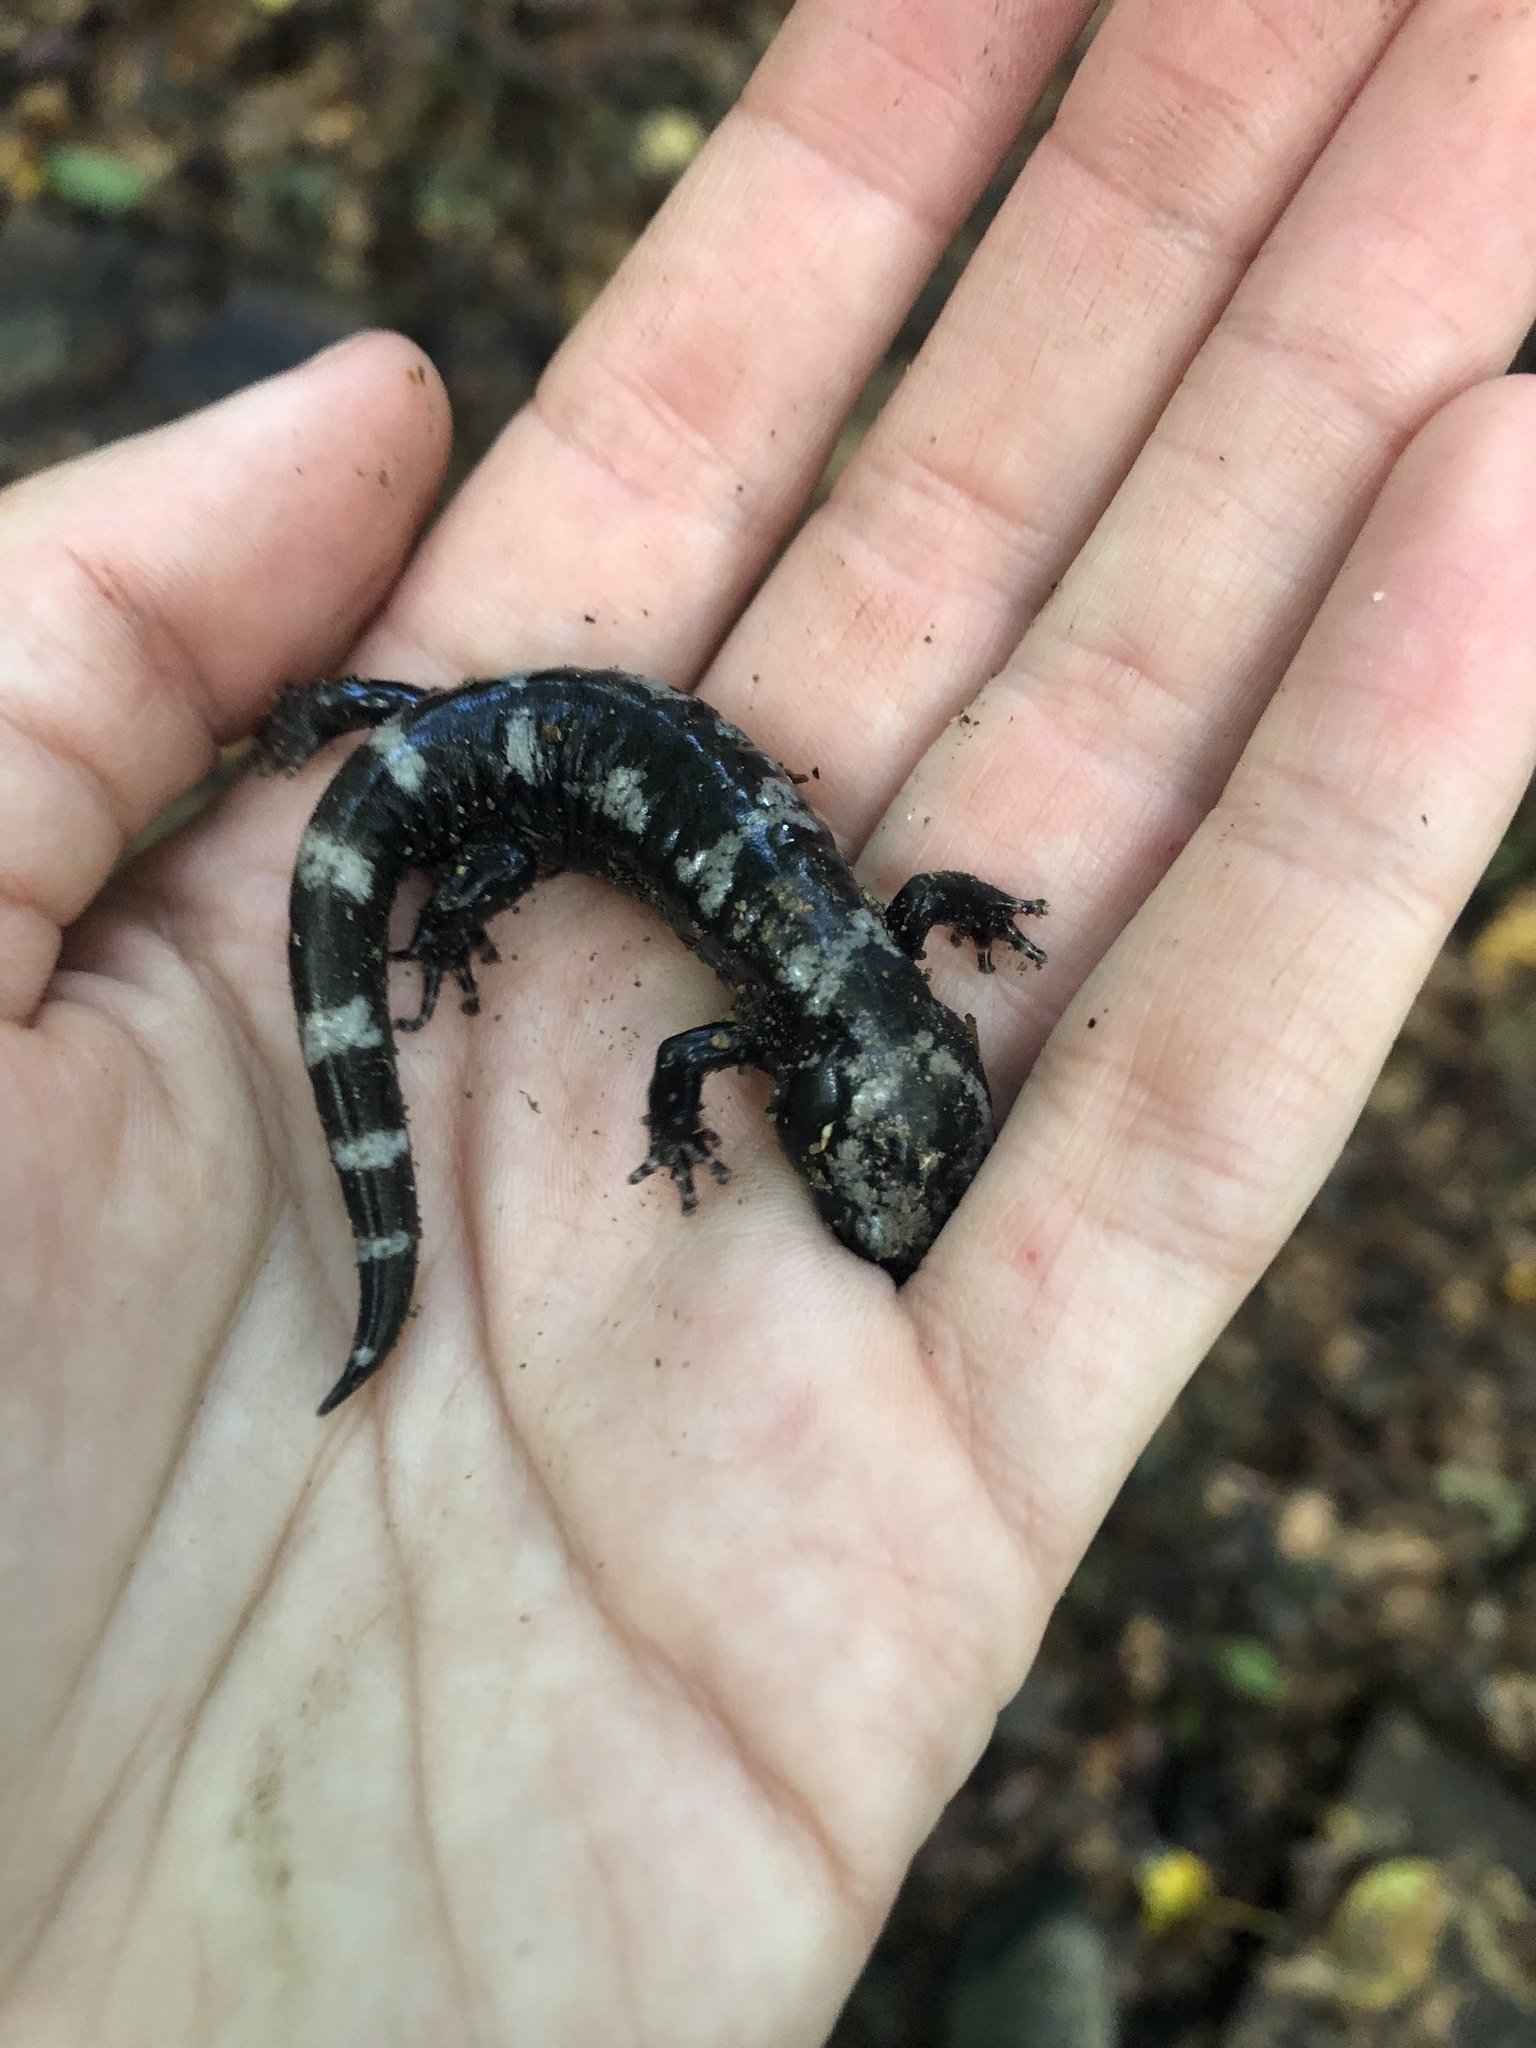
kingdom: Animalia
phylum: Chordata
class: Amphibia
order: Caudata
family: Ambystomatidae
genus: Ambystoma
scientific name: Ambystoma opacum
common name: Marbled salamander
